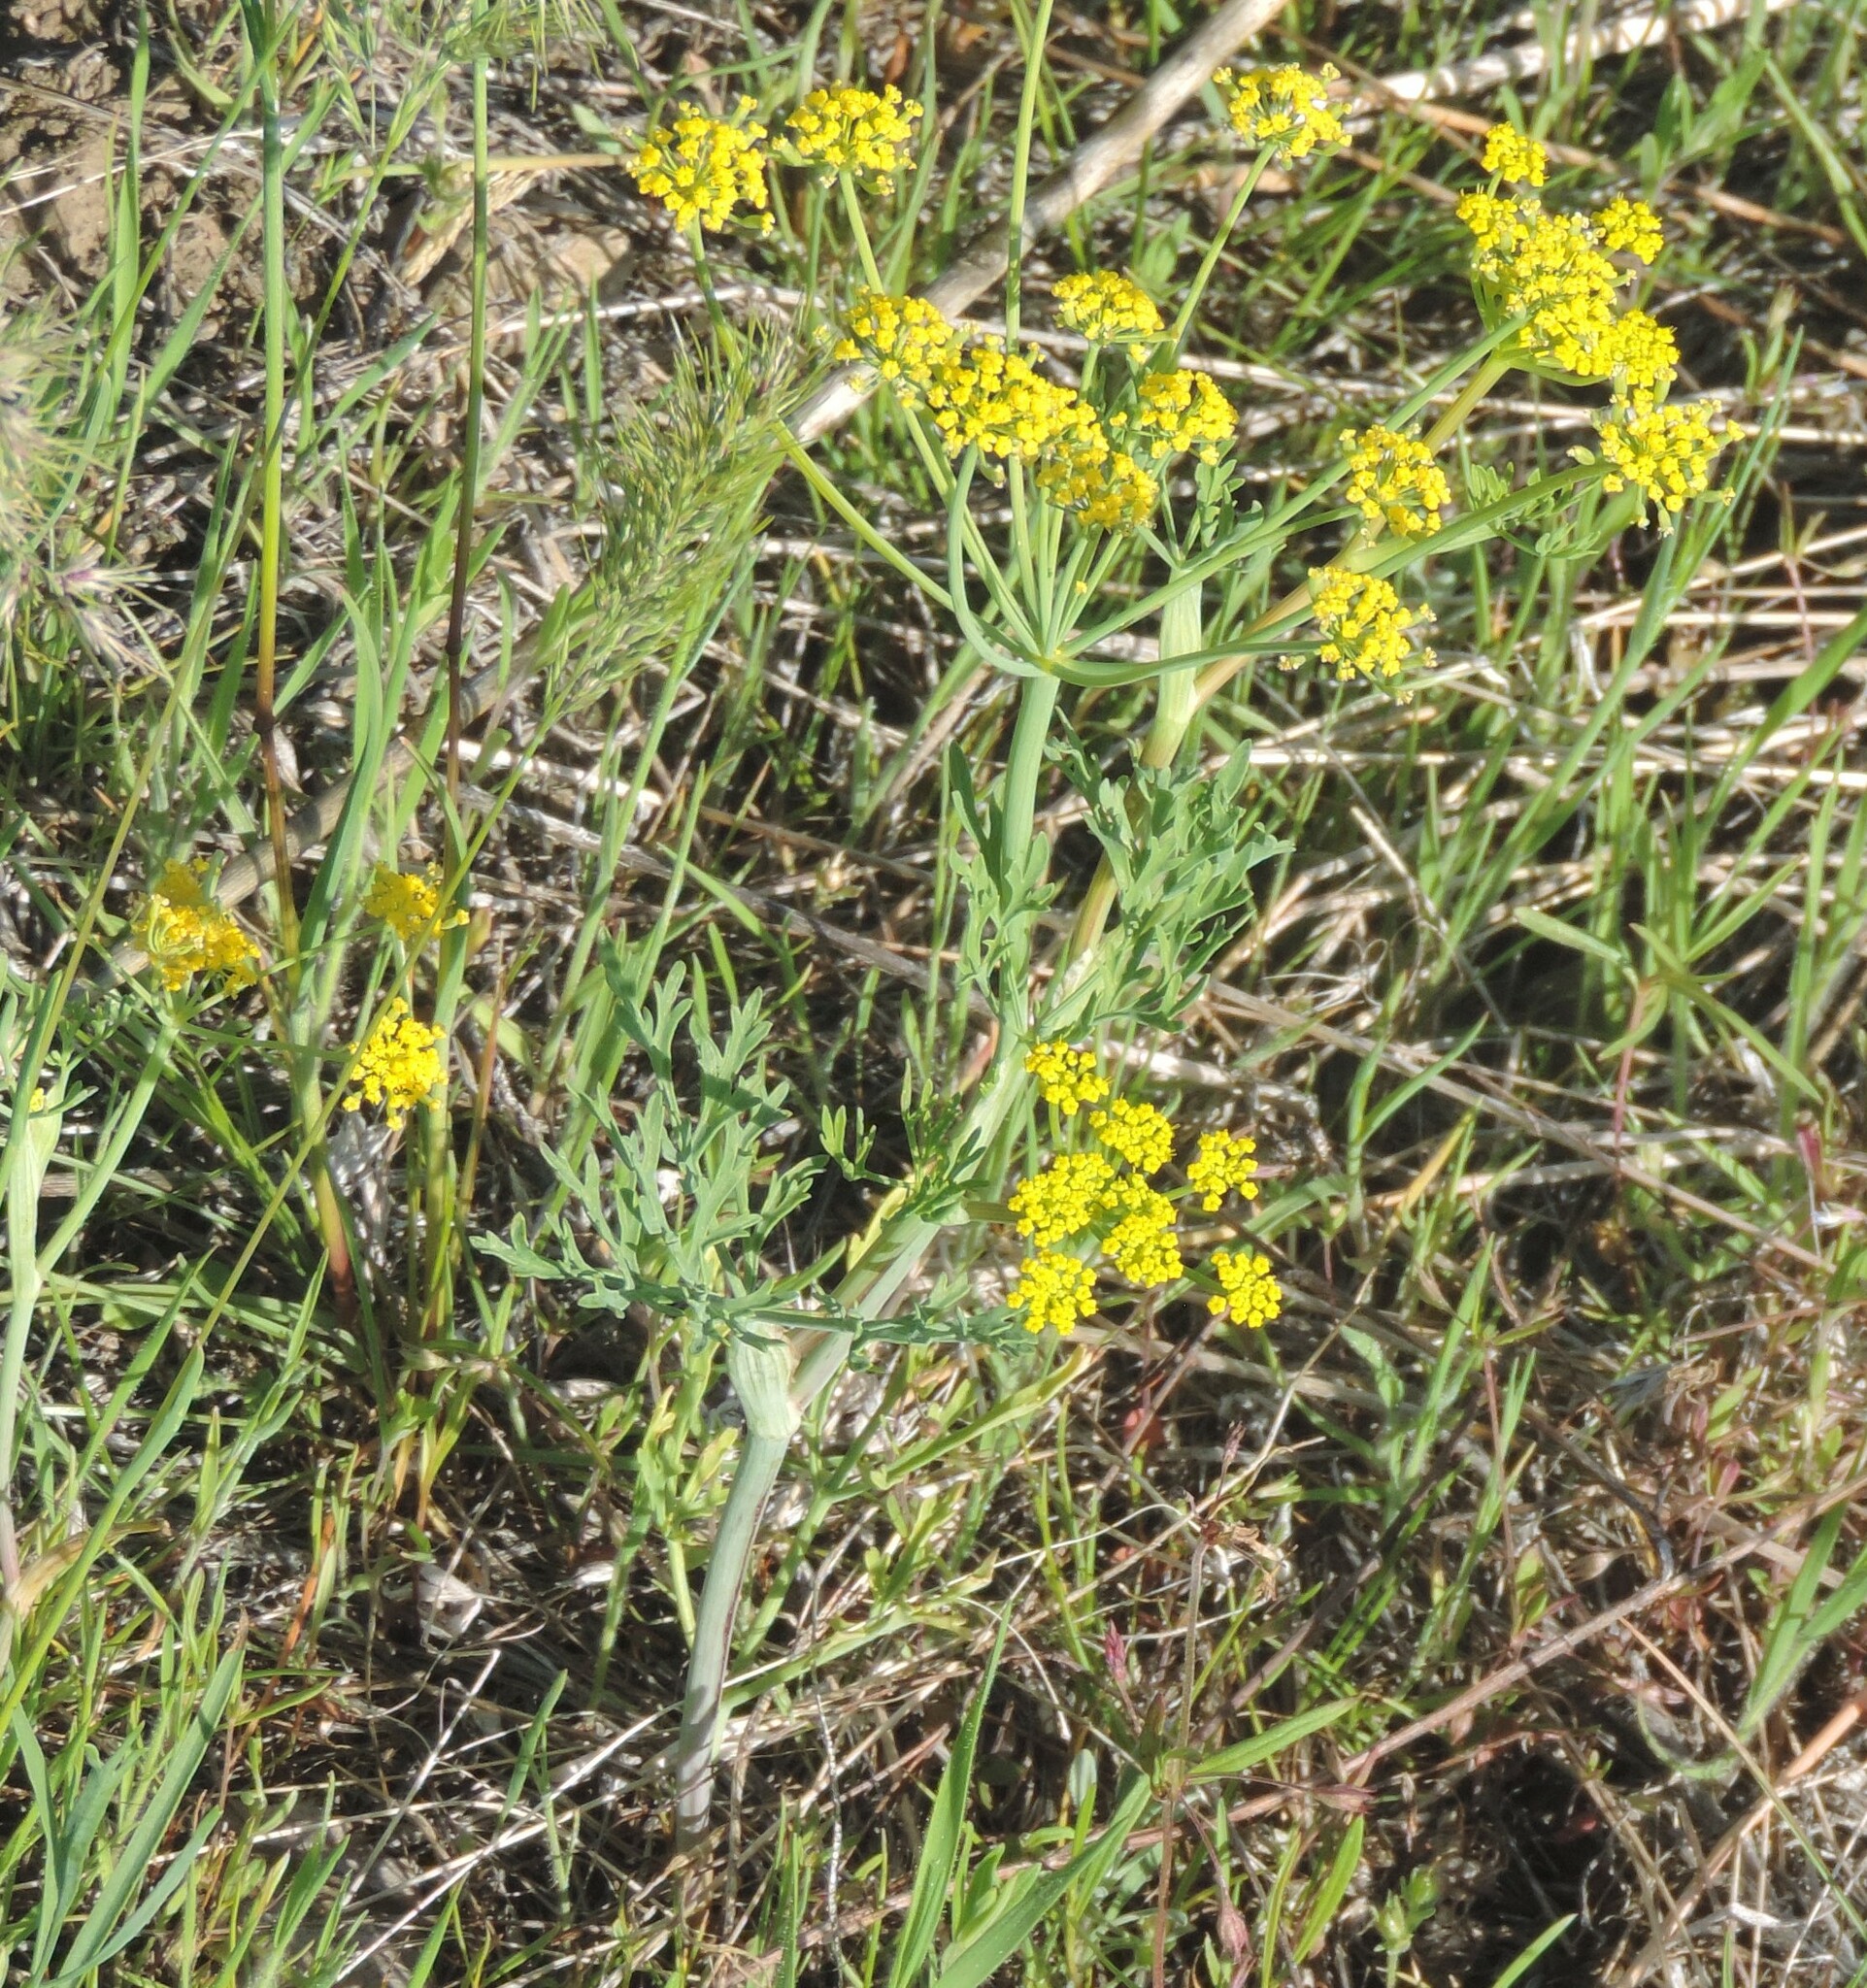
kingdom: Plantae
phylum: Tracheophyta
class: Magnoliopsida
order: Apiales
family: Apiaceae
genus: Lomatium
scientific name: Lomatium ambiguum
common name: Lacy lomatium
